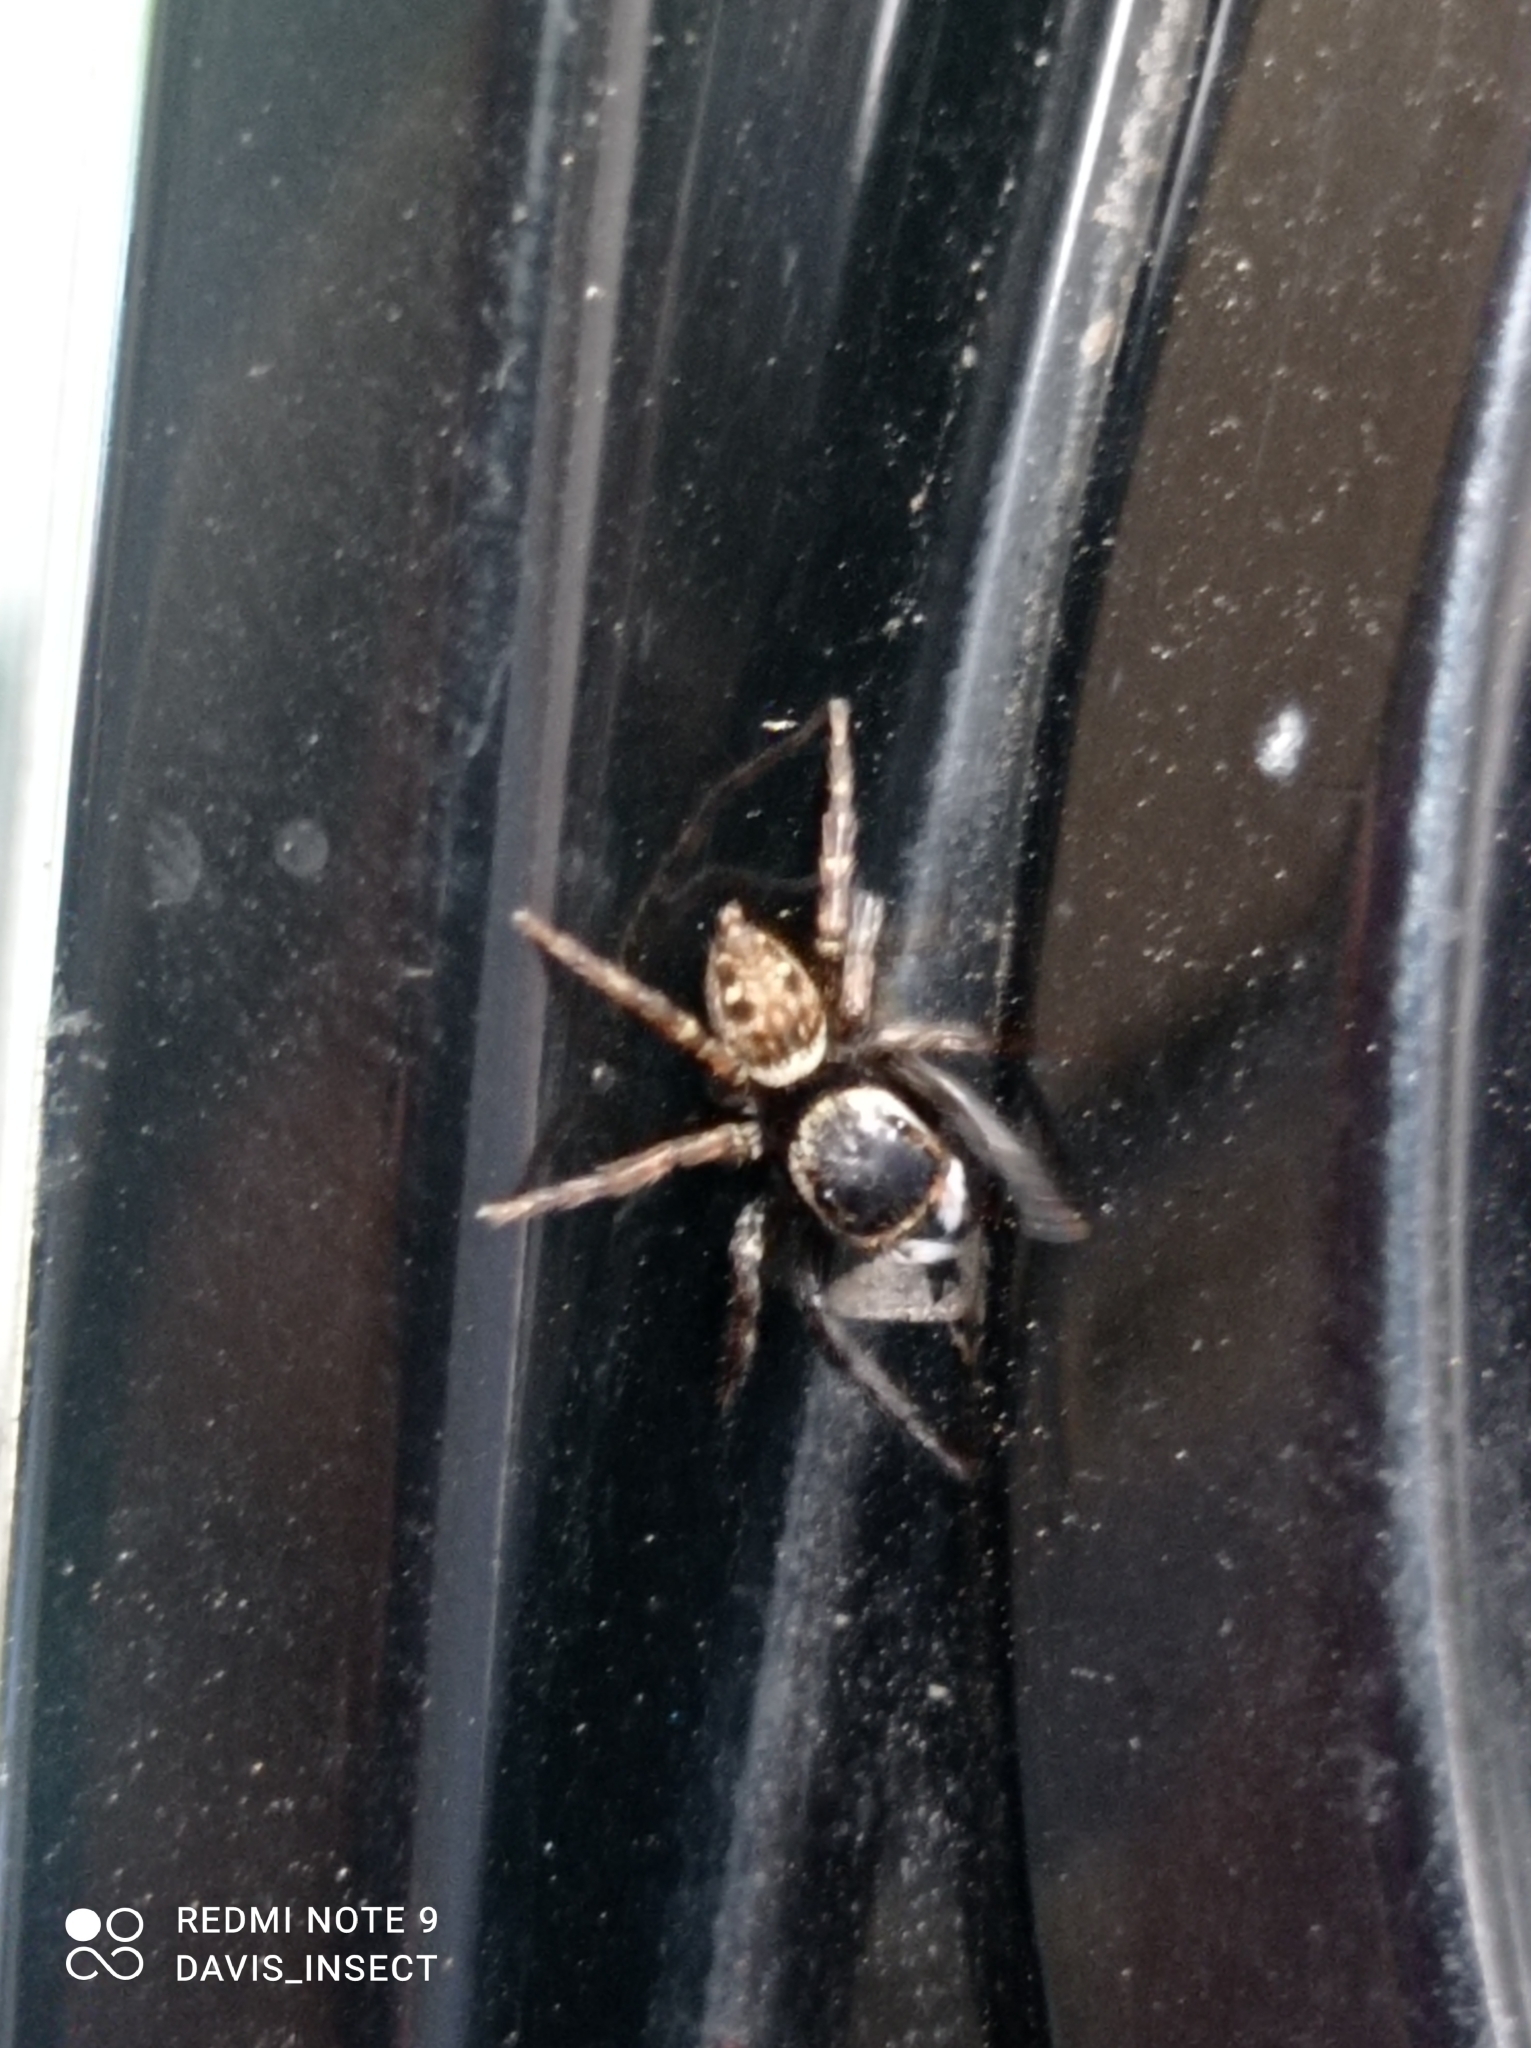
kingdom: Animalia
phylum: Arthropoda
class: Arachnida
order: Araneae
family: Salticidae
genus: Hasarius
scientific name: Hasarius adansoni
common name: Jumping spider
